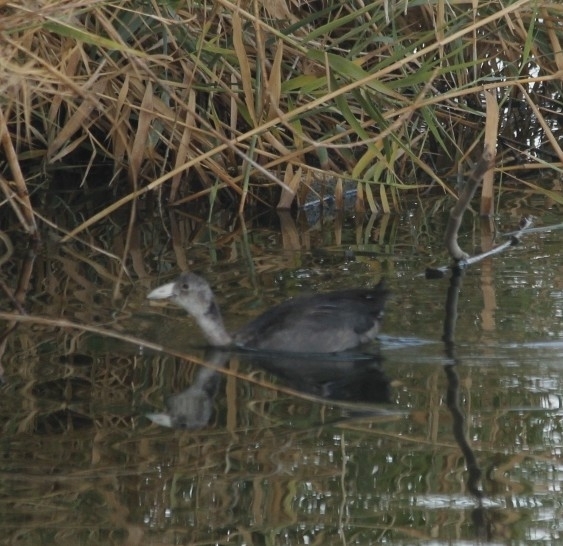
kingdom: Animalia
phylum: Chordata
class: Aves
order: Gruiformes
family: Rallidae
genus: Fulica
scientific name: Fulica americana
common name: American coot
